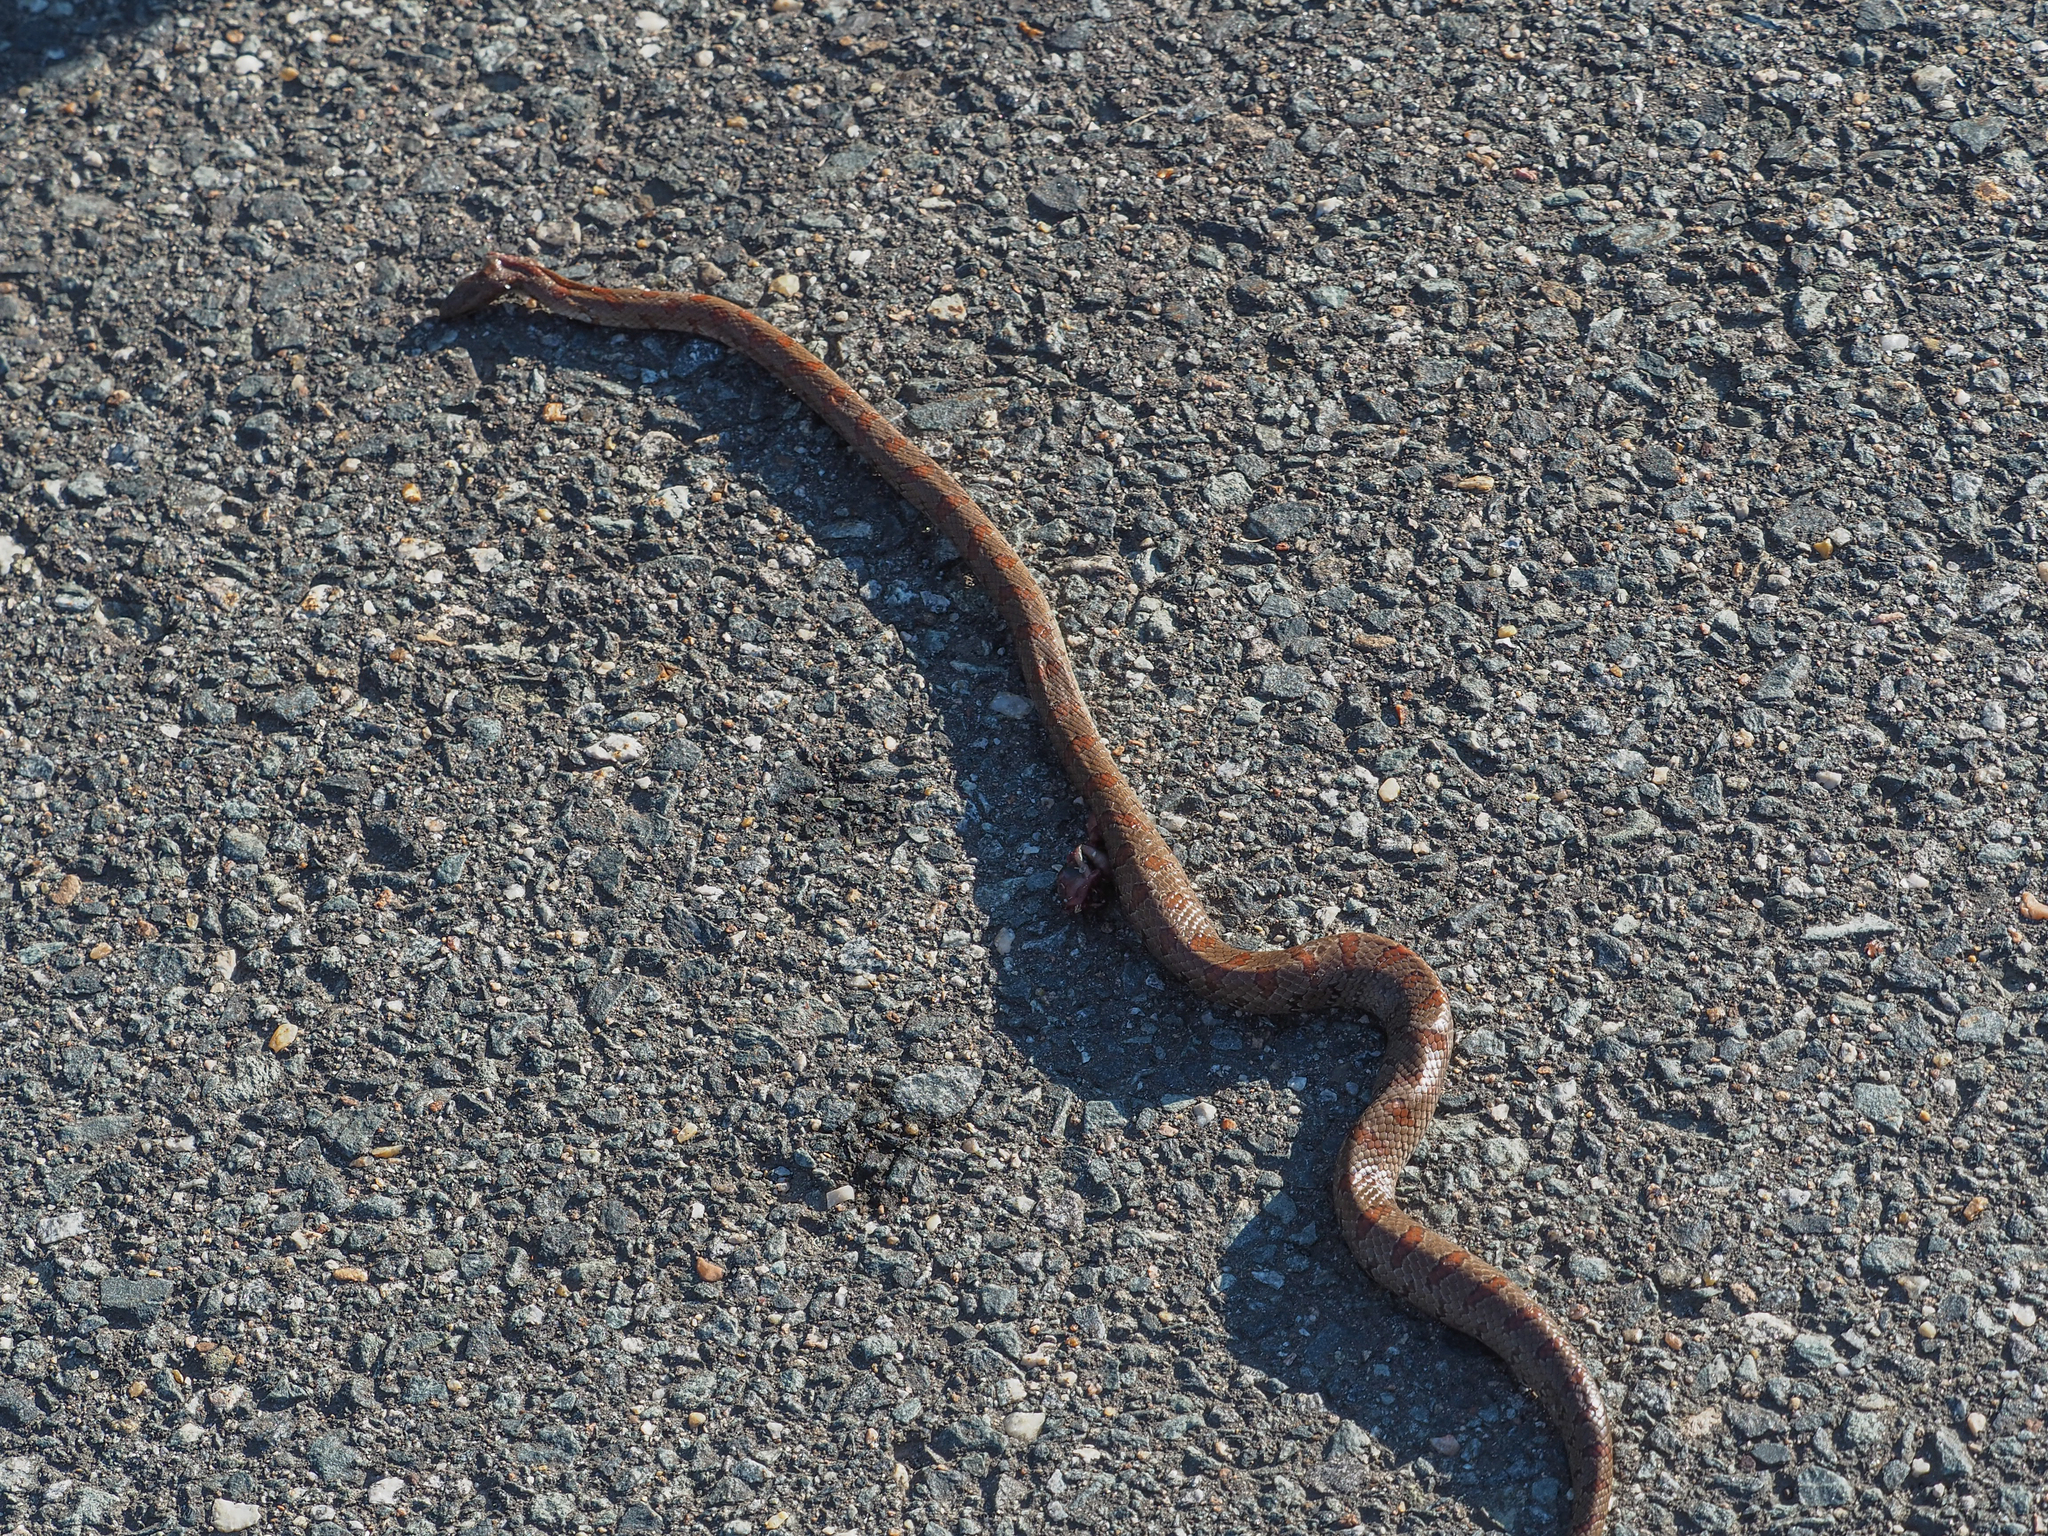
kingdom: Animalia
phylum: Chordata
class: Squamata
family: Colubridae
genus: Lampropeltis
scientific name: Lampropeltis rhombomaculata
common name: Mole kingsnake
